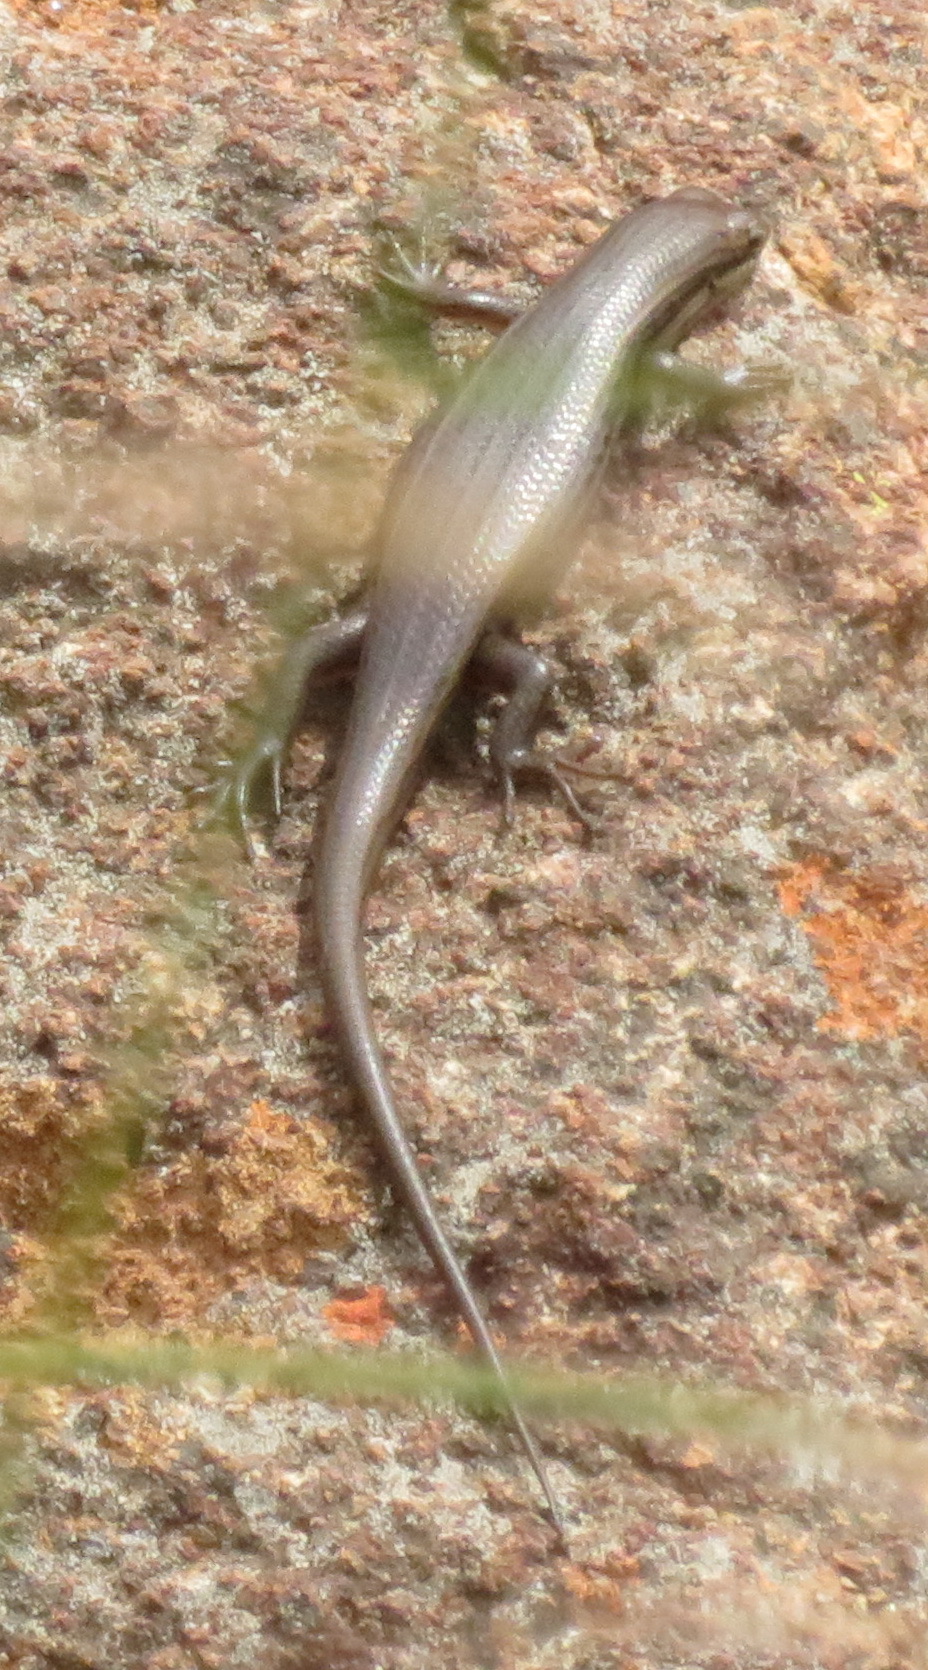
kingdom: Animalia
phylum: Chordata
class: Squamata
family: Scincidae
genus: Trachylepis
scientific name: Trachylepis variegata
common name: Variegated skink
